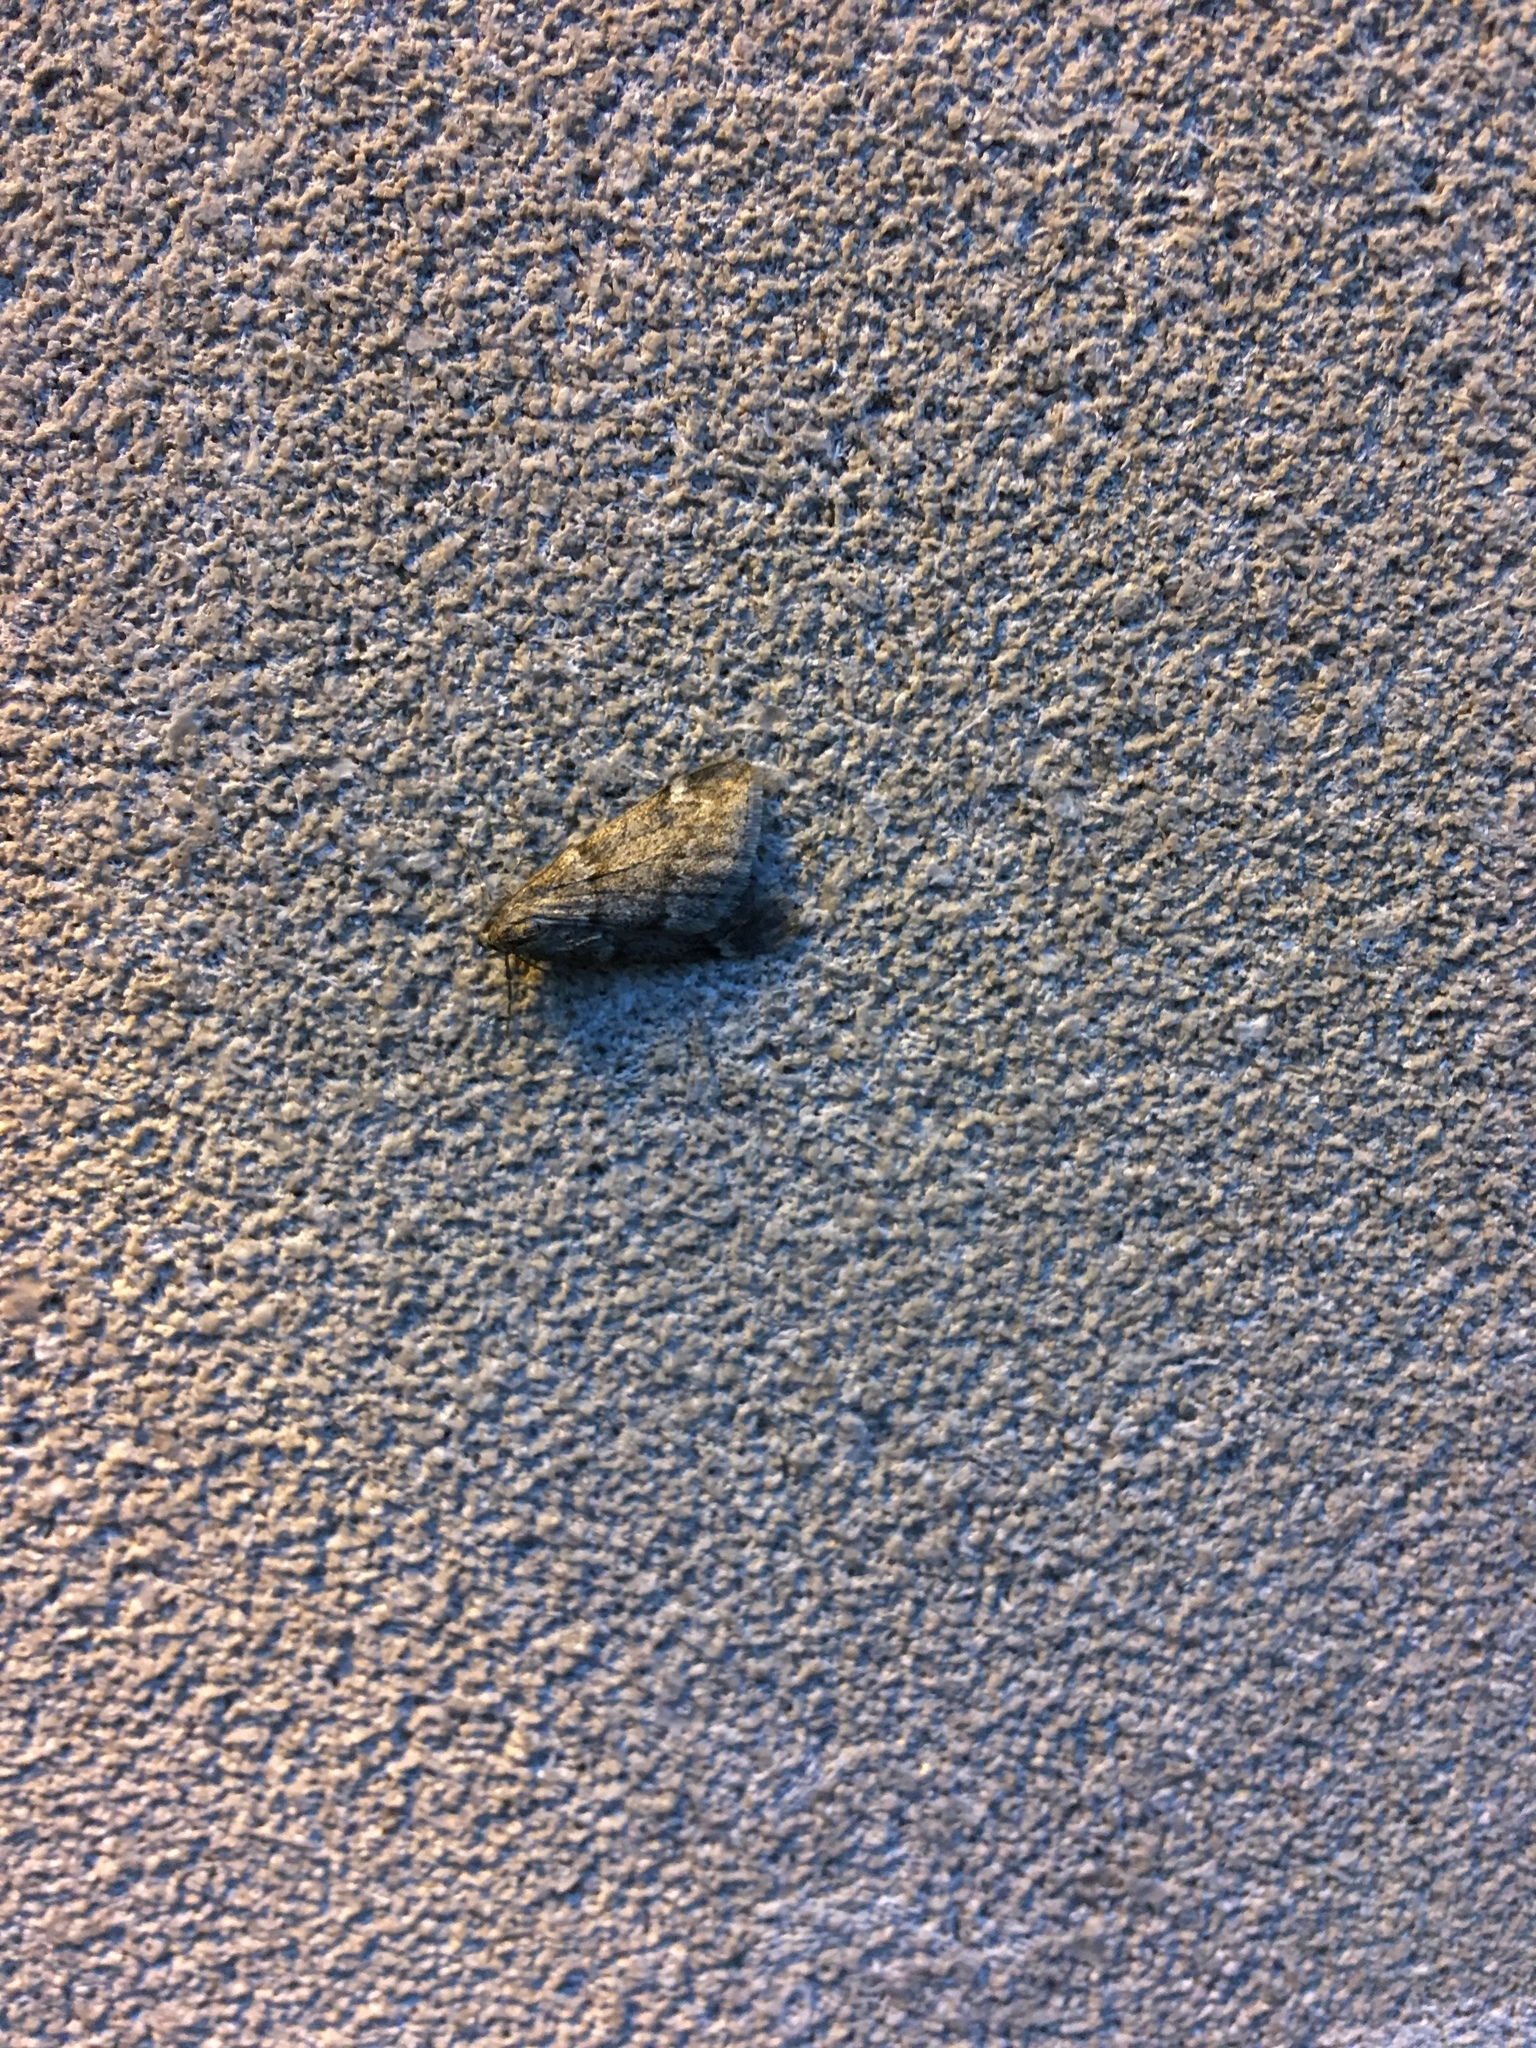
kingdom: Animalia
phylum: Arthropoda
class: Insecta
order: Lepidoptera
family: Geometridae
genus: Alsophila
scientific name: Alsophila pometaria
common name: Fall cankerworm
